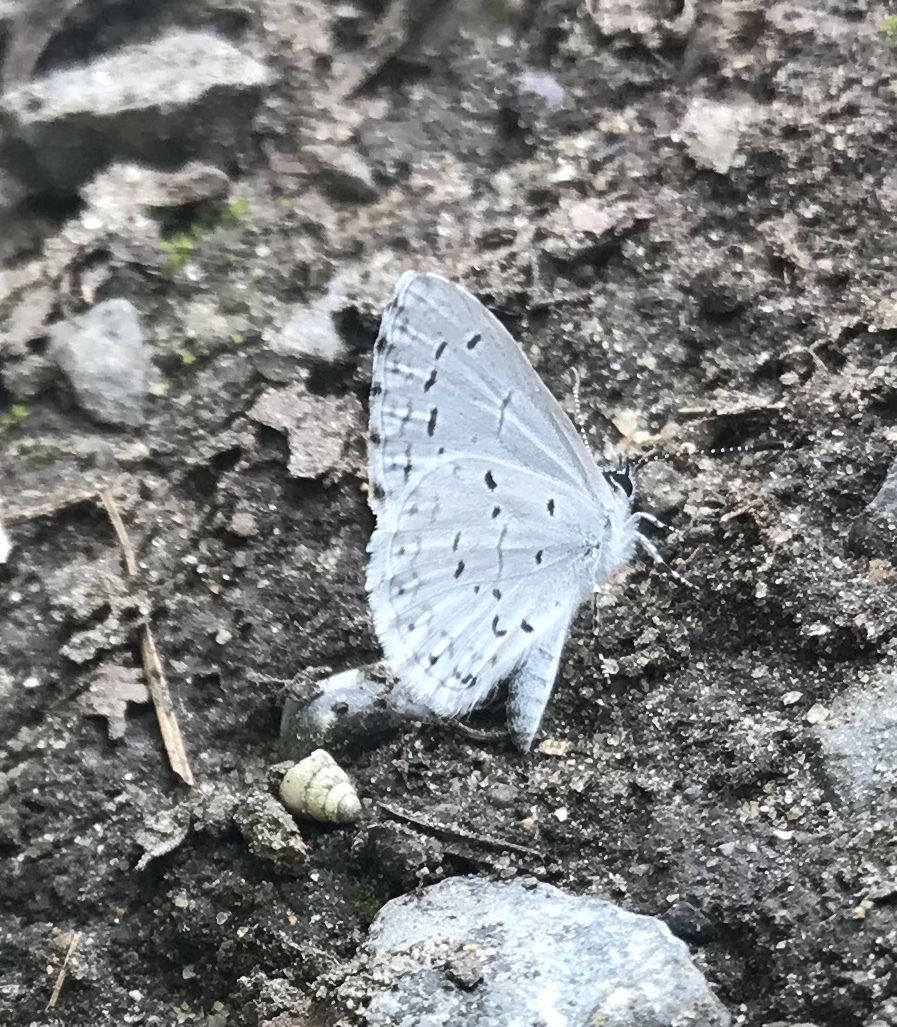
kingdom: Animalia
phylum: Arthropoda
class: Insecta
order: Lepidoptera
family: Lycaenidae
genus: Cyaniris
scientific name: Cyaniris neglecta
